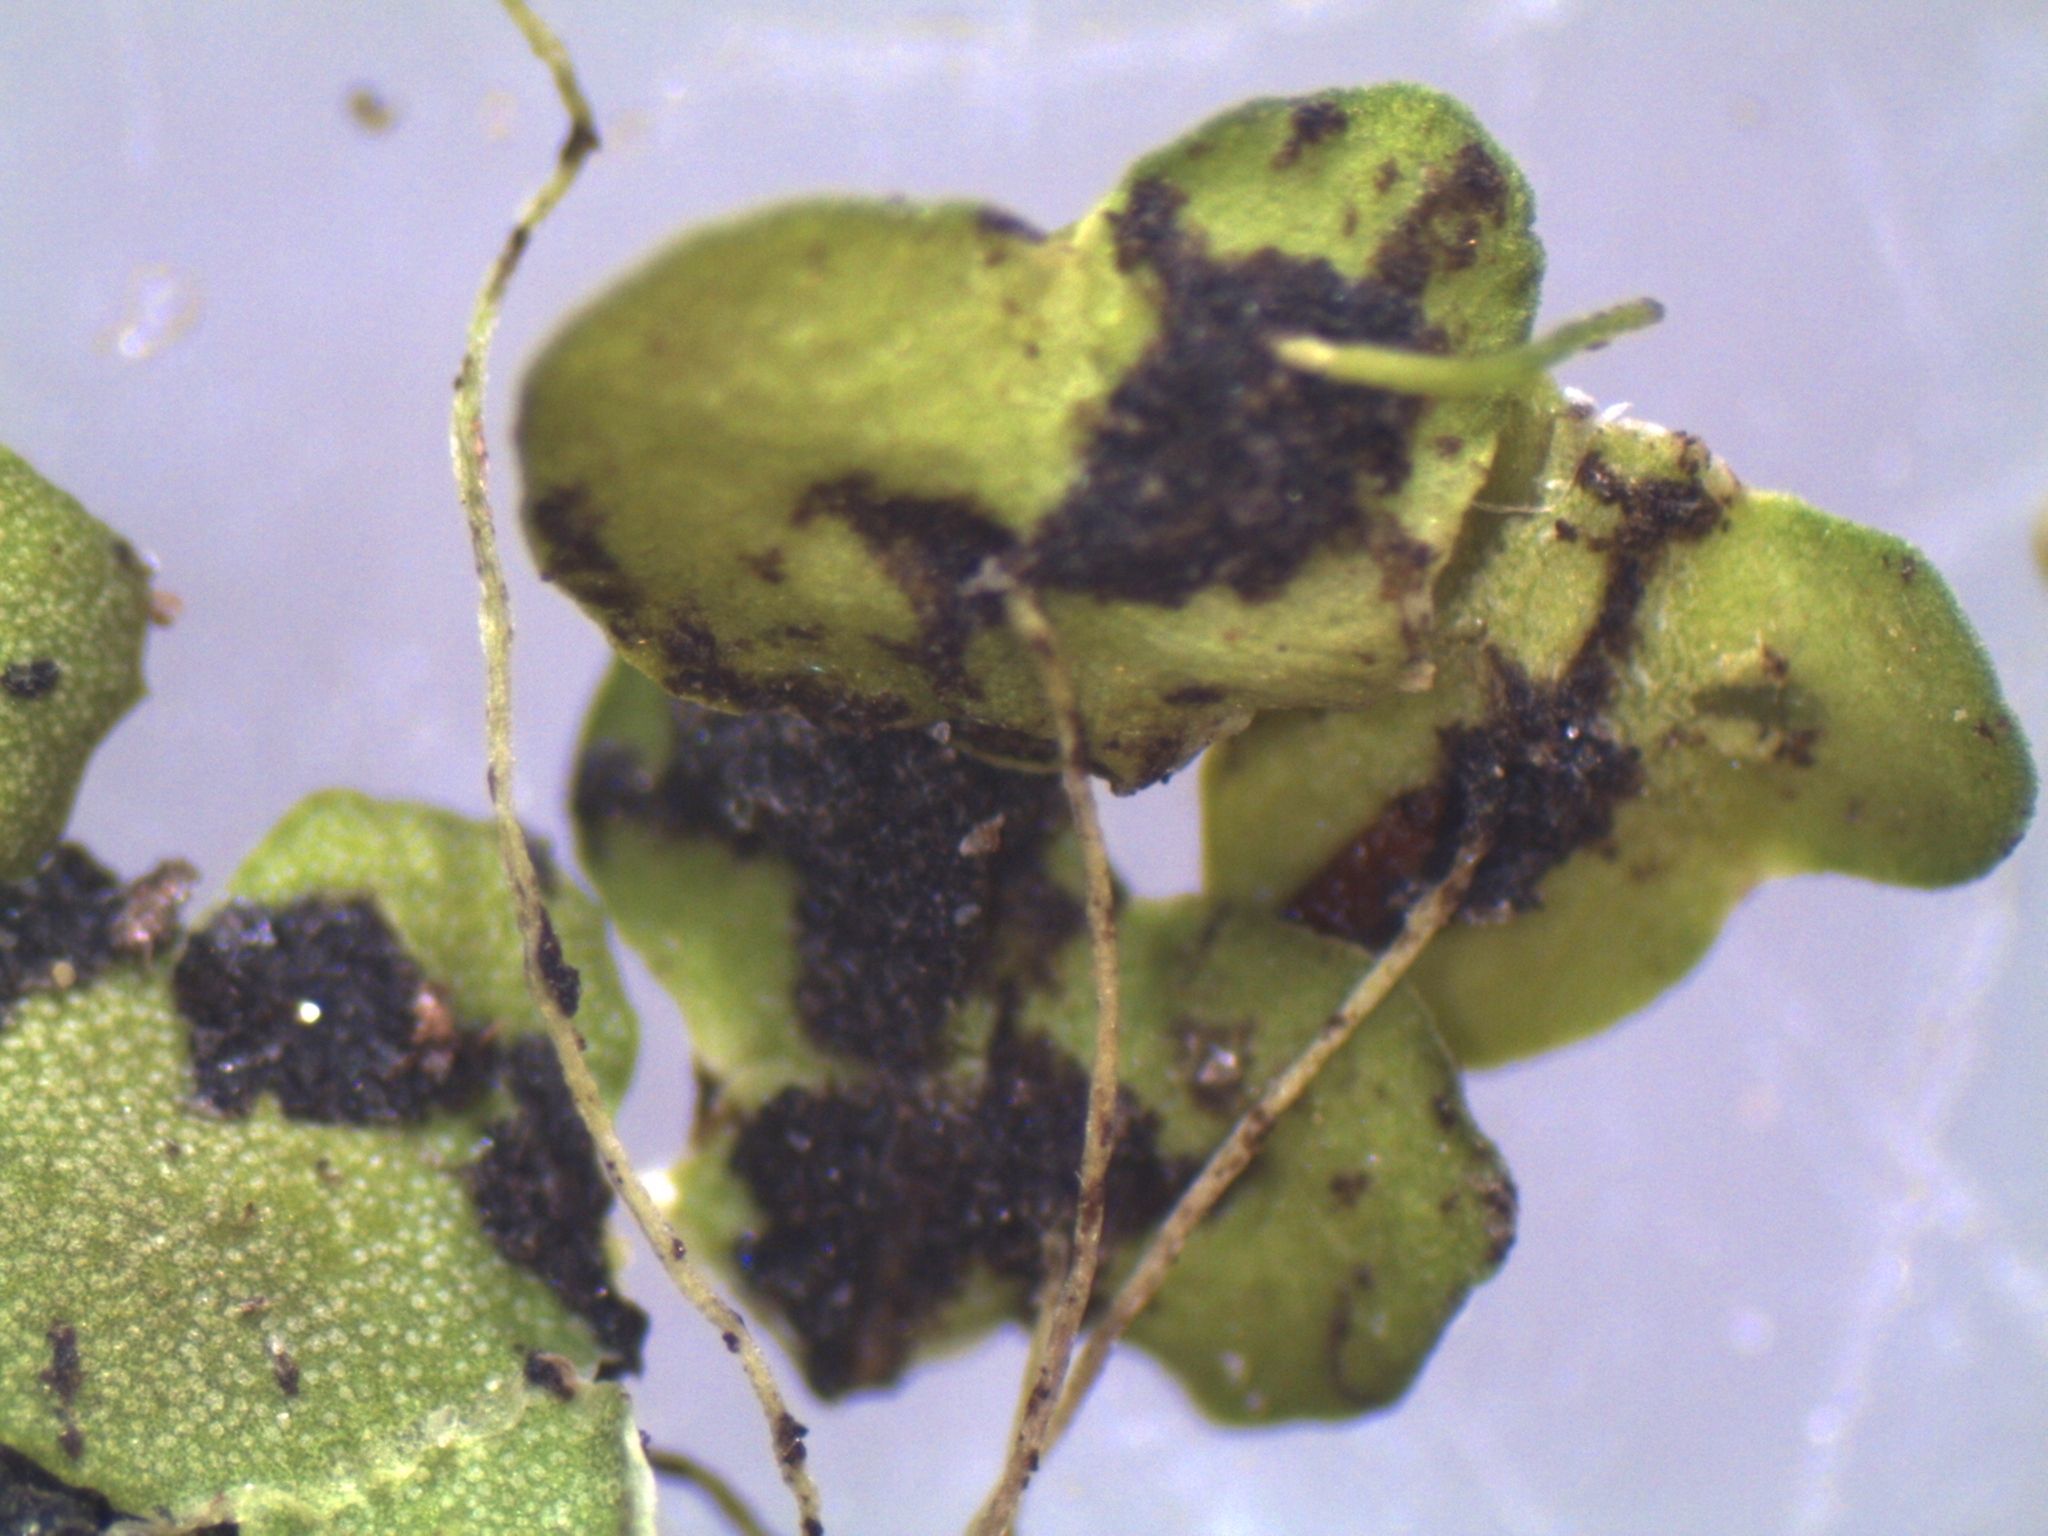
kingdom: Plantae
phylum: Tracheophyta
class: Liliopsida
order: Alismatales
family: Araceae
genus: Lemna
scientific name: Lemna disperma
